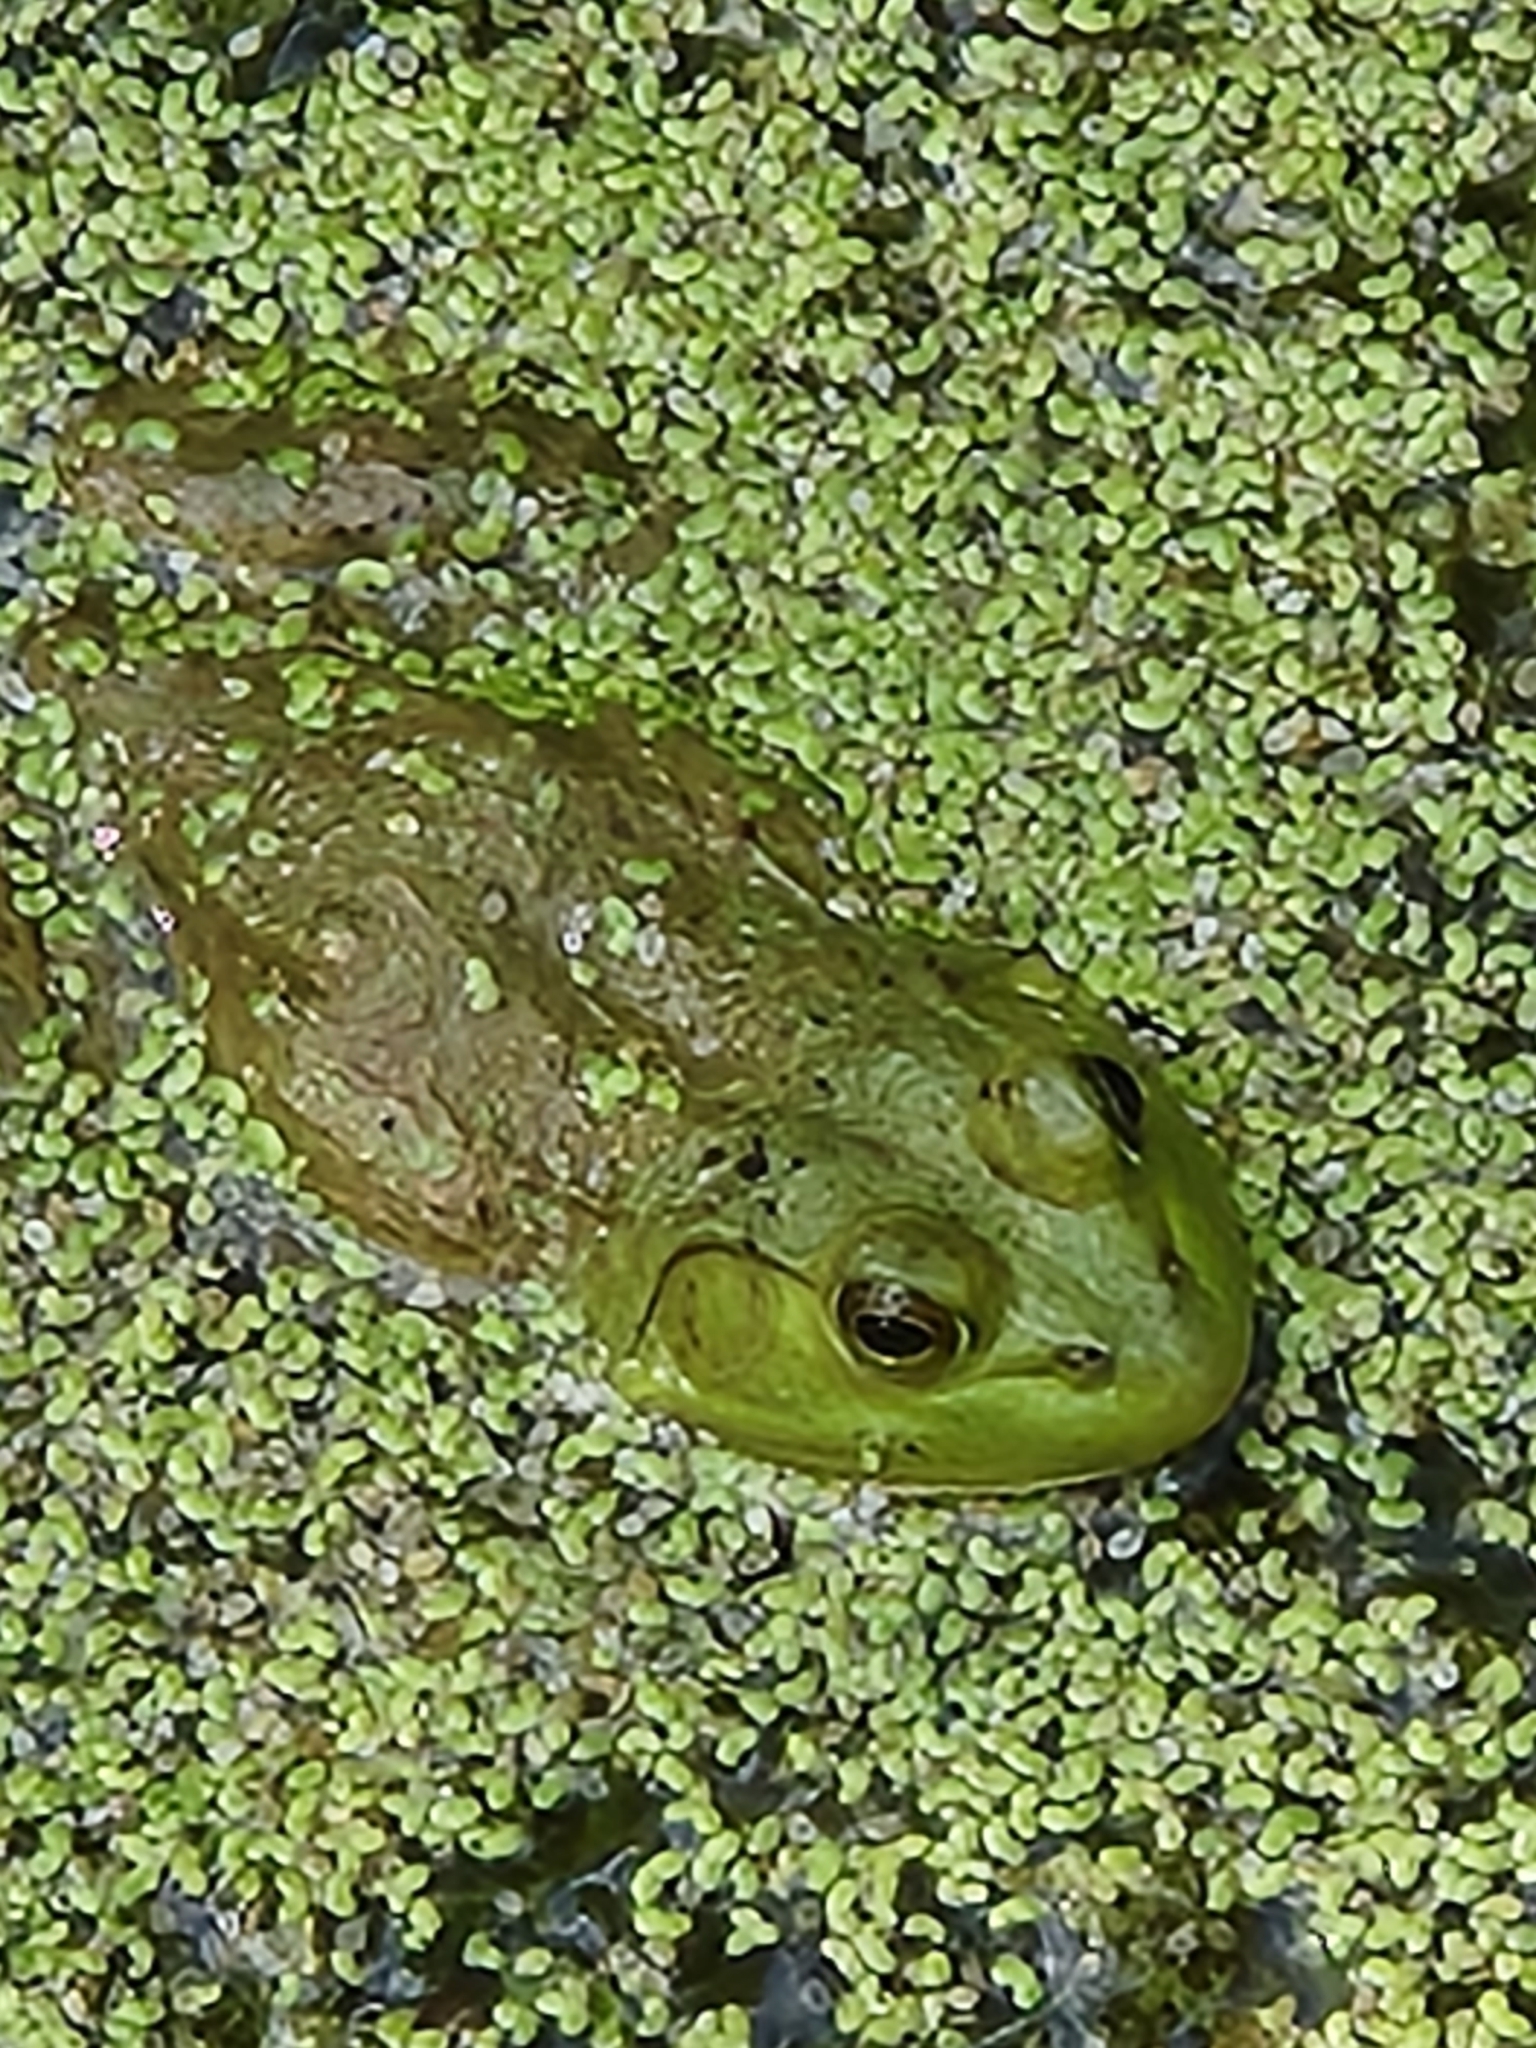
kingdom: Animalia
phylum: Chordata
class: Amphibia
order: Anura
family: Ranidae
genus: Lithobates
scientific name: Lithobates catesbeianus
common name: American bullfrog
